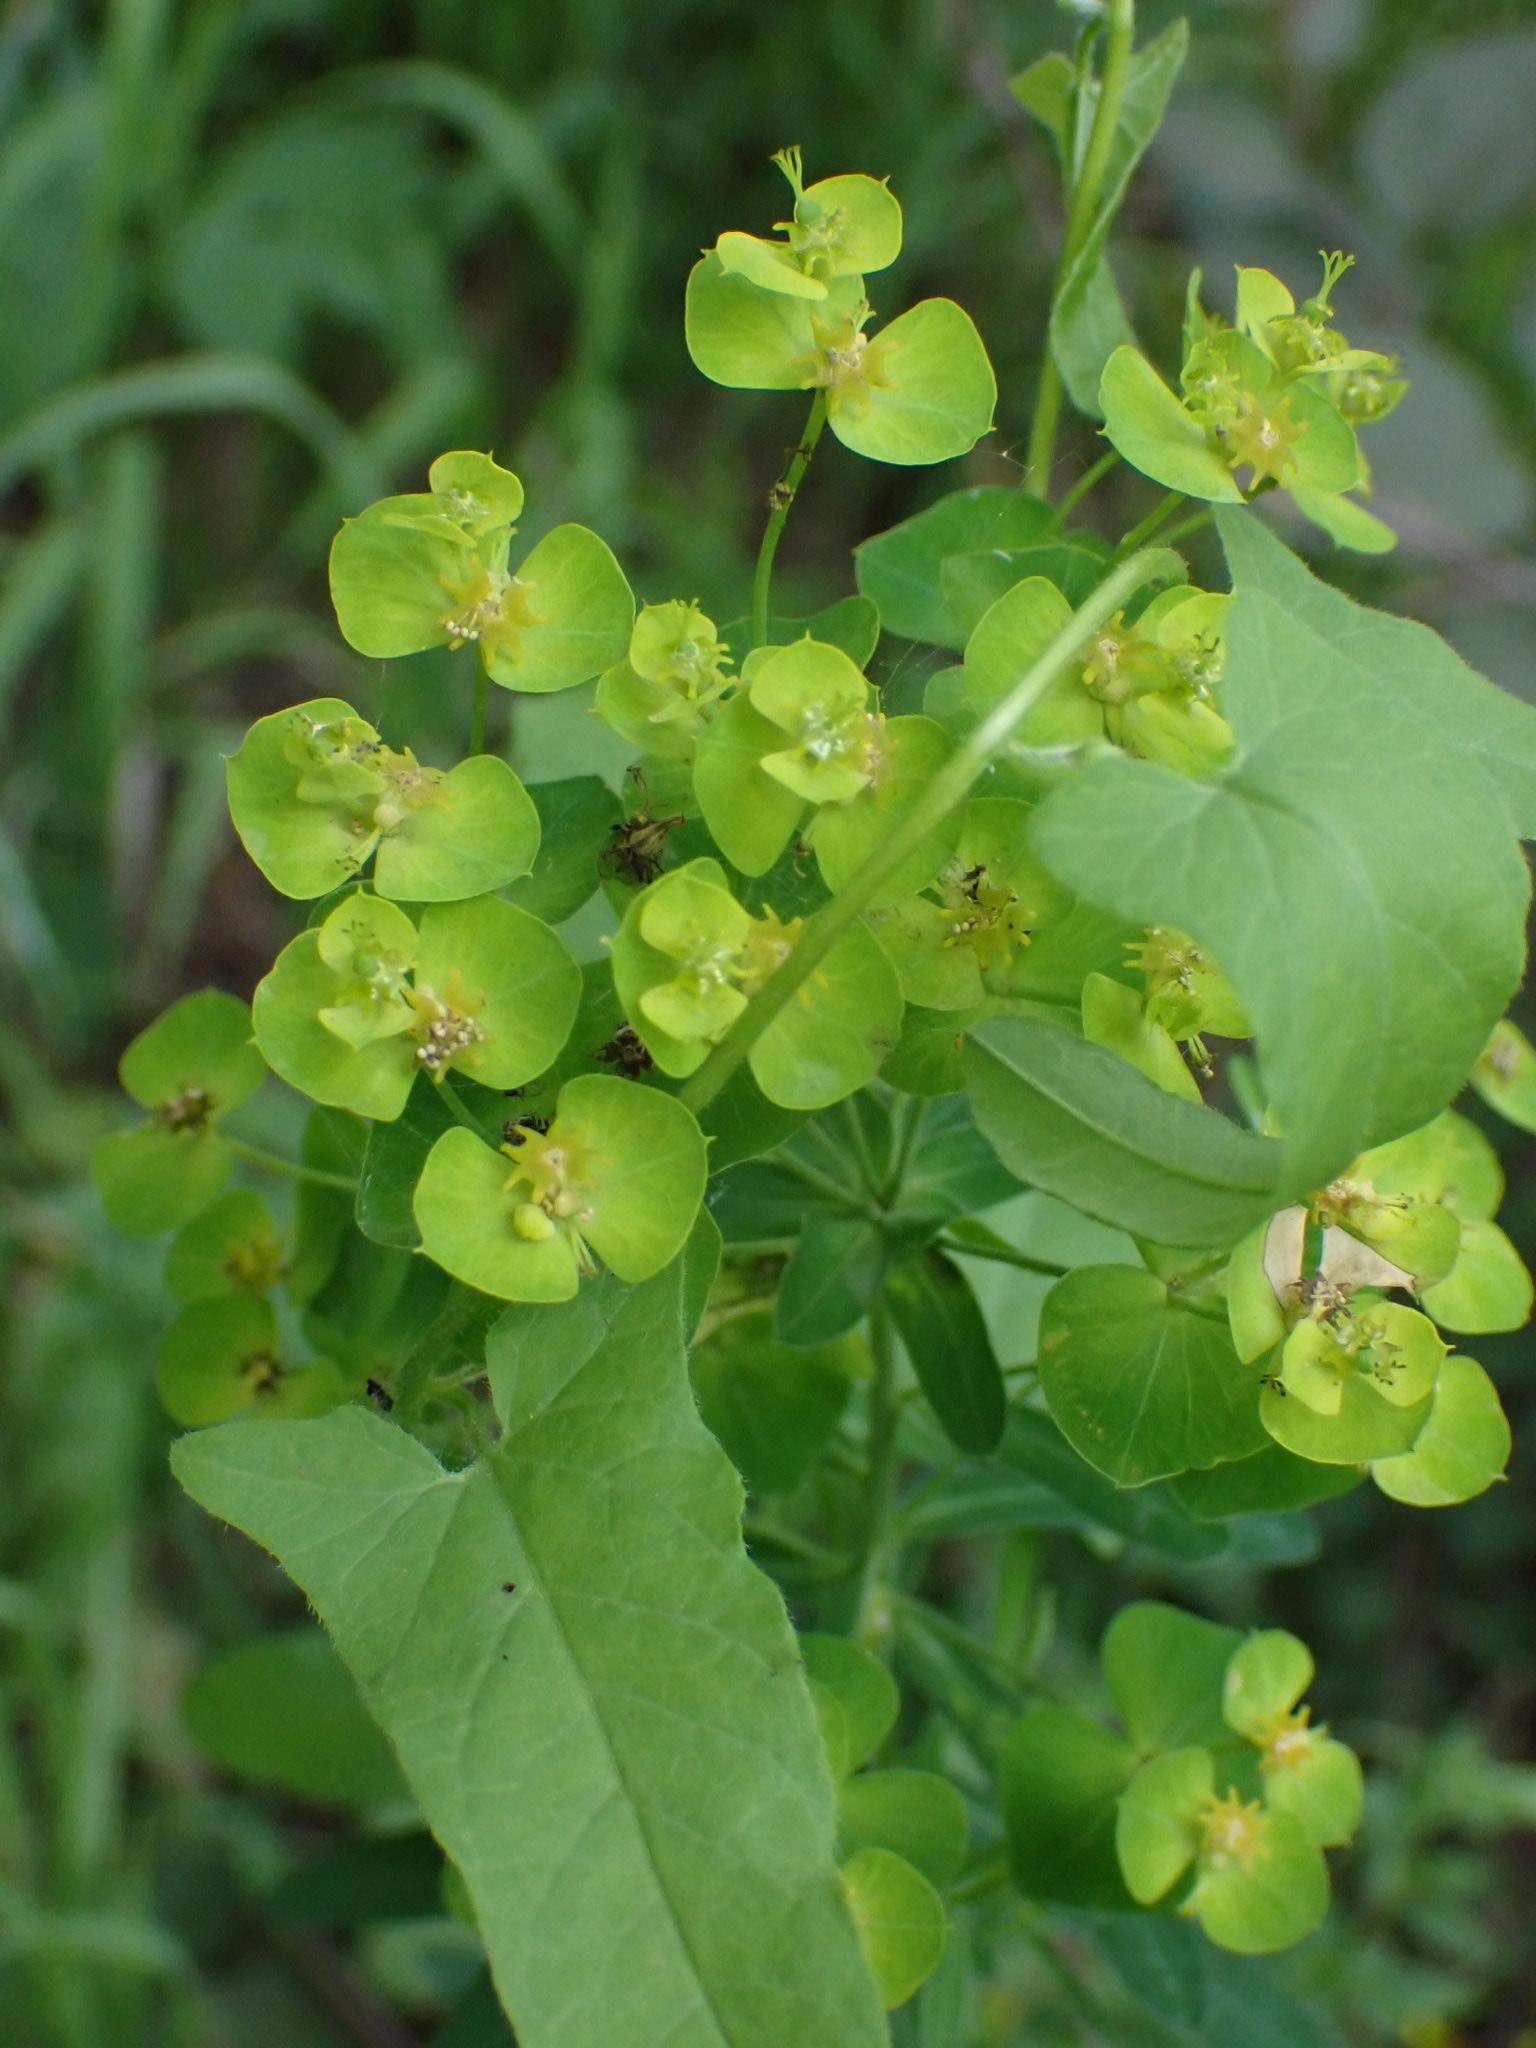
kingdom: Plantae
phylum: Tracheophyta
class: Magnoliopsida
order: Malpighiales
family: Euphorbiaceae
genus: Euphorbia
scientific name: Euphorbia virgata
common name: Leafy spurge
